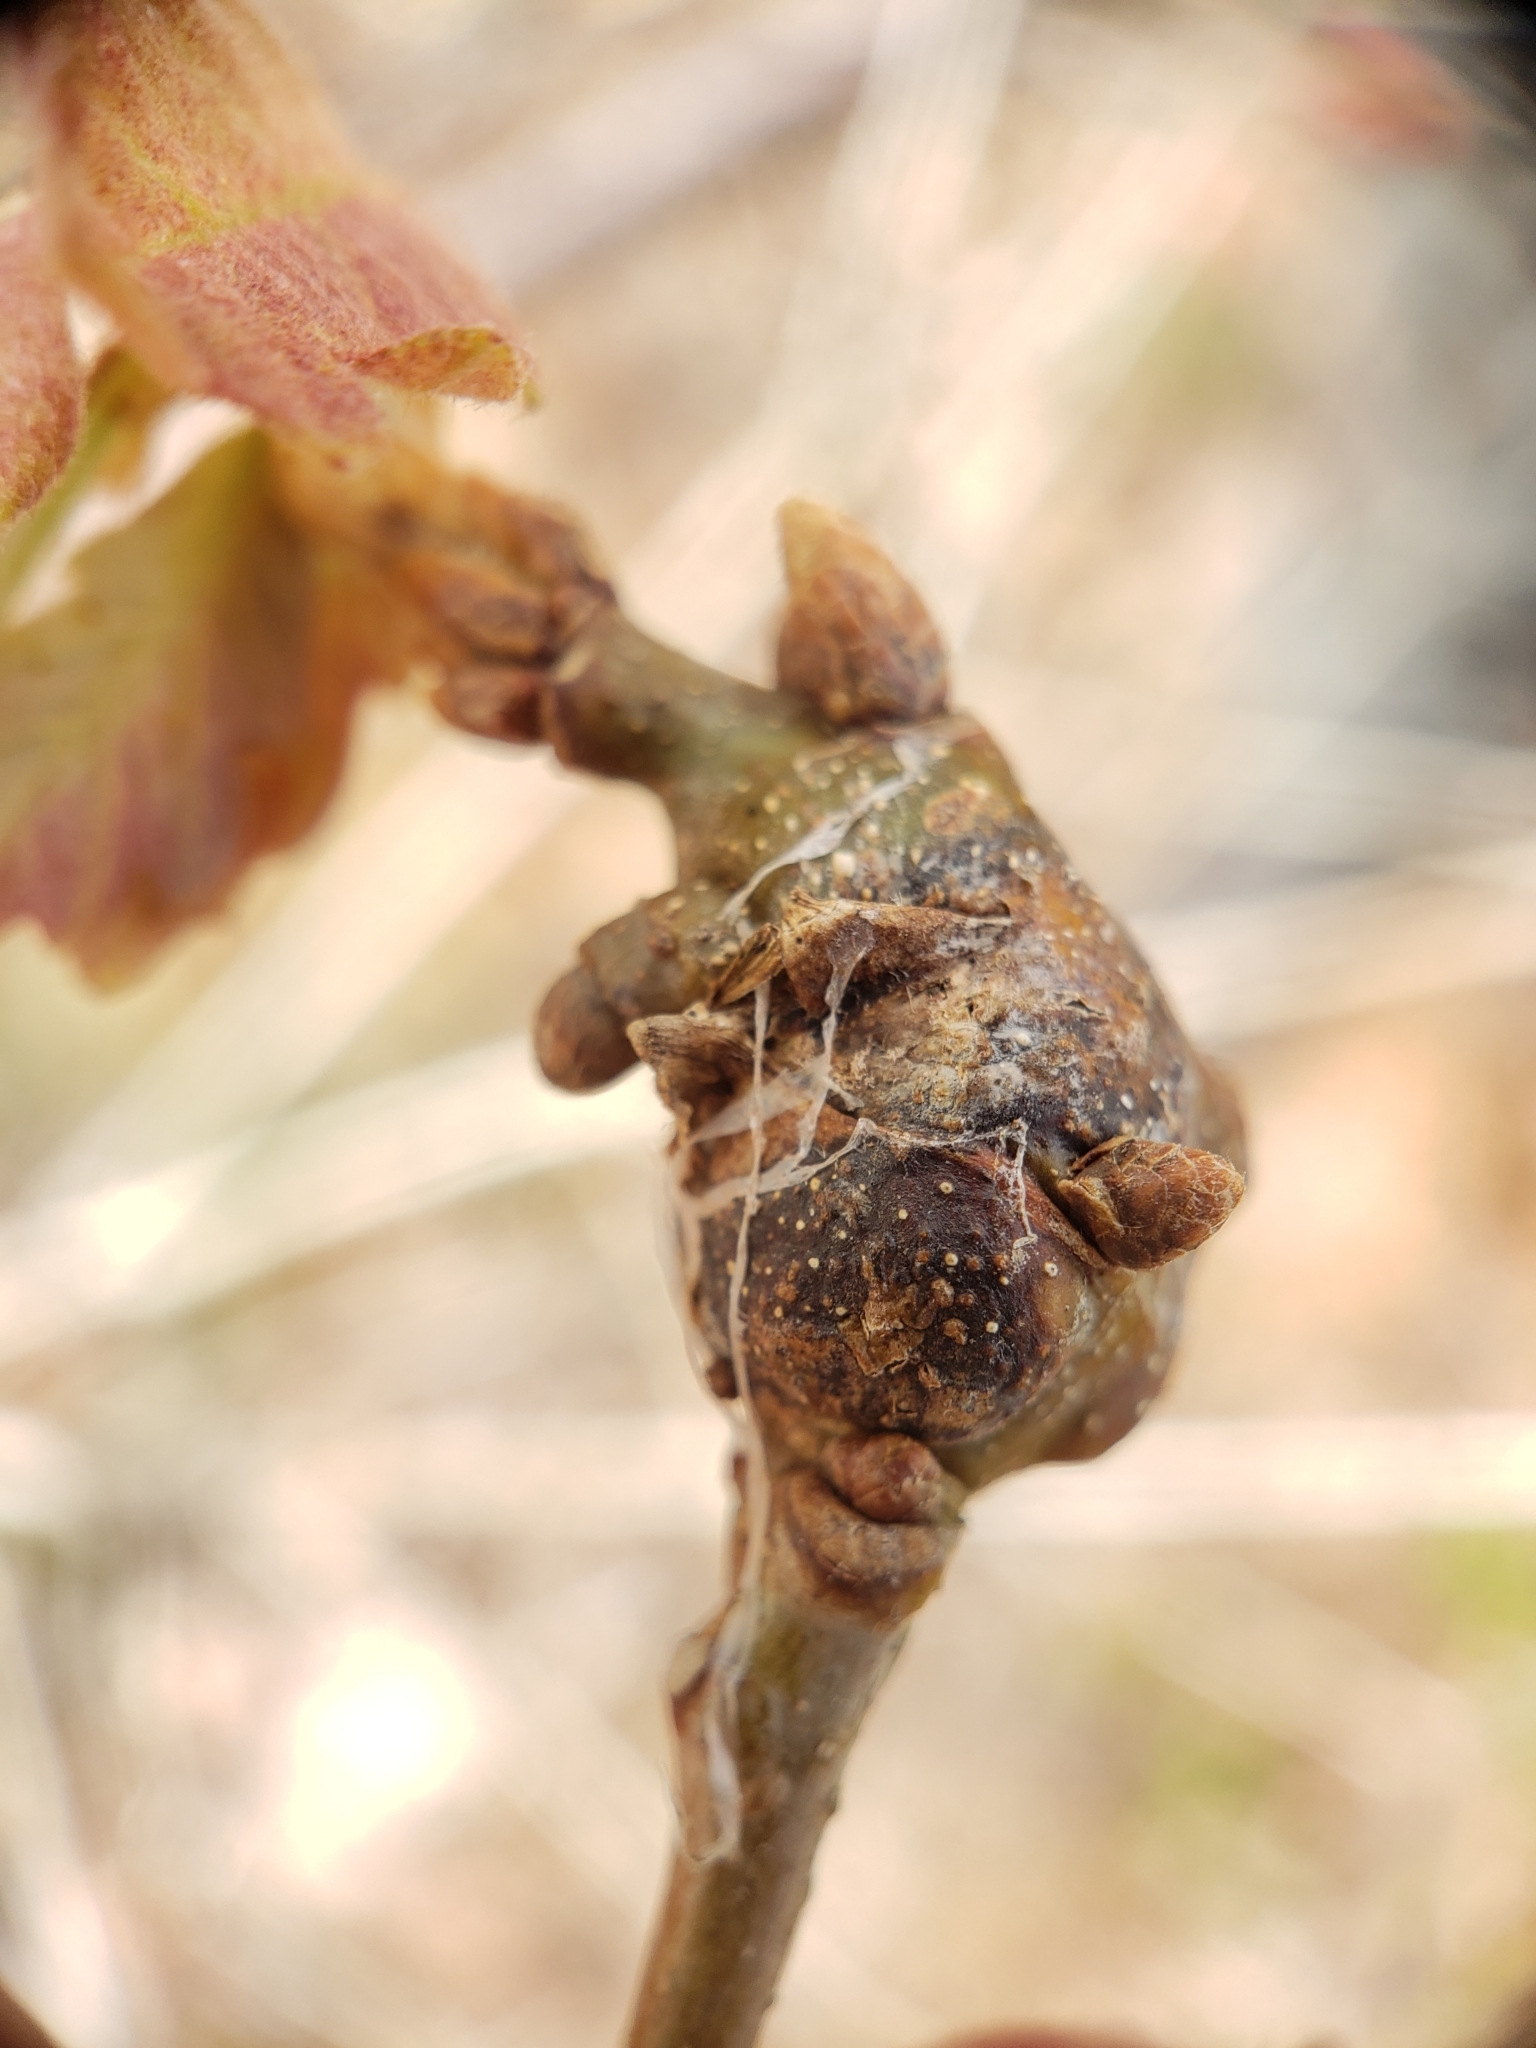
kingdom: Animalia
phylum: Arthropoda
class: Insecta
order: Hymenoptera
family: Cynipidae
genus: Zapatella
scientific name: Zapatella quercusphellos
